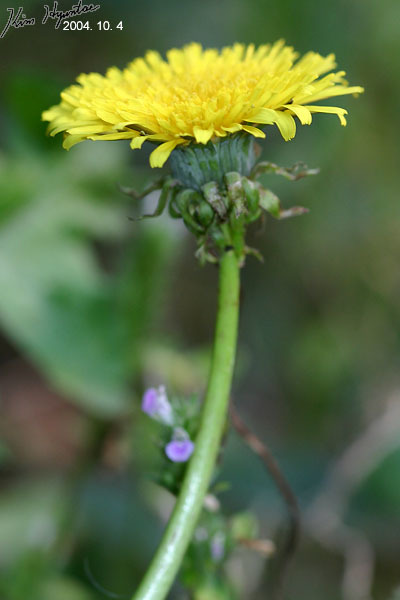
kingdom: Plantae
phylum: Tracheophyta
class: Magnoliopsida
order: Asterales
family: Asteraceae
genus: Taraxacum
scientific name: Taraxacum officinale
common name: Common dandelion
